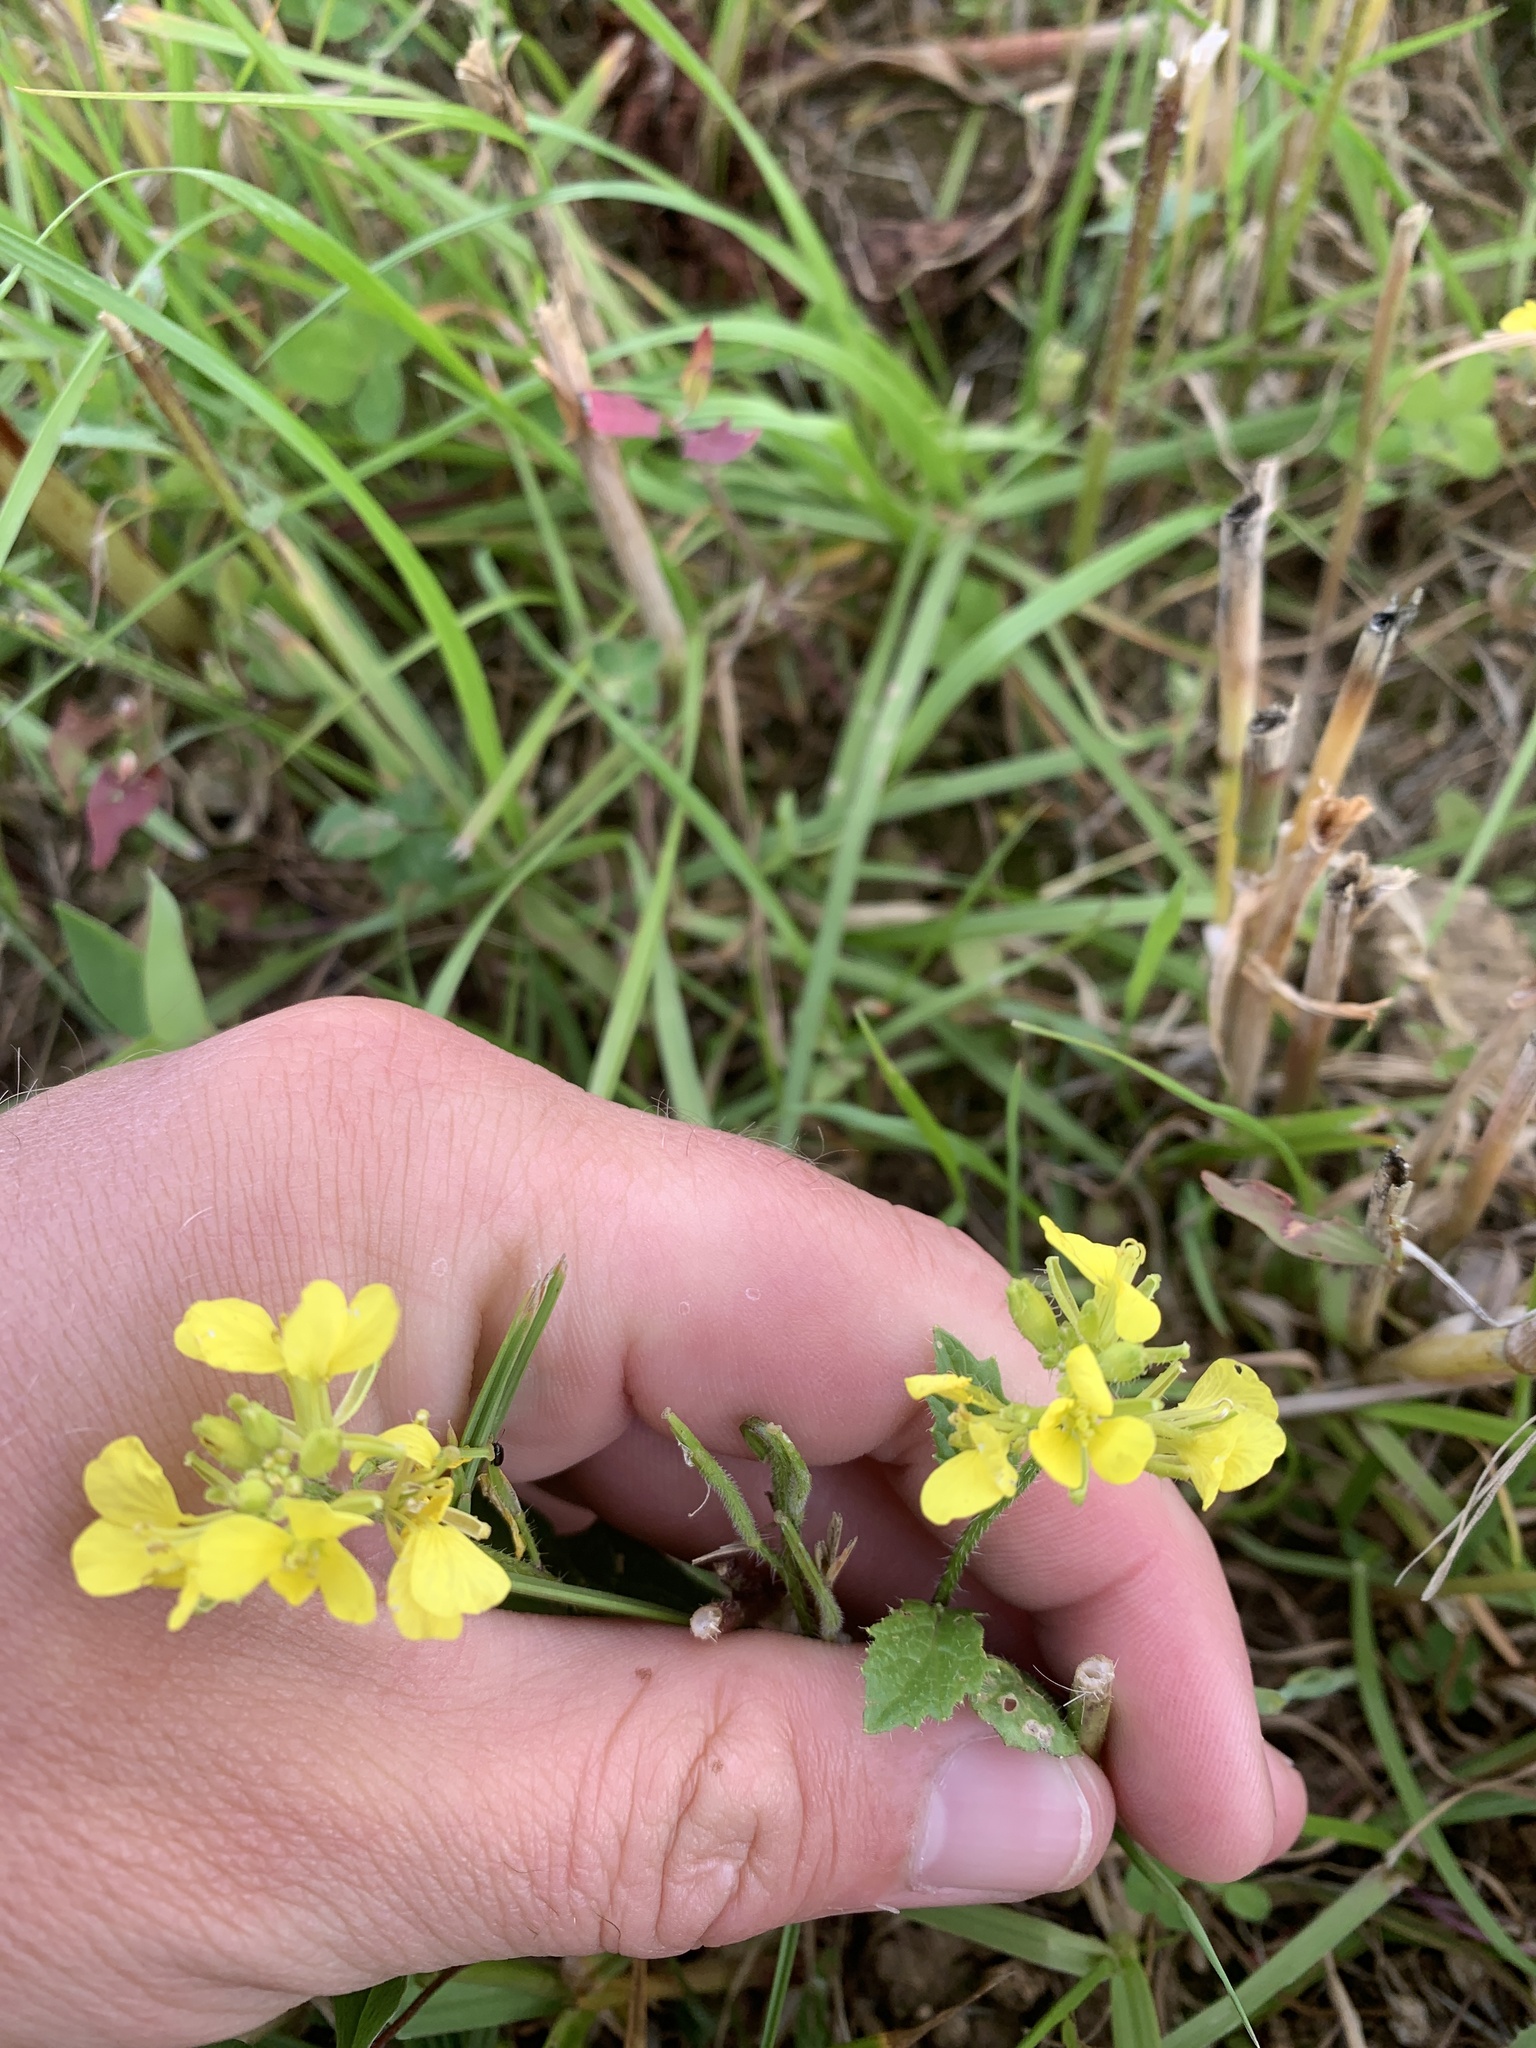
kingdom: Plantae
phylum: Tracheophyta
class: Magnoliopsida
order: Brassicales
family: Brassicaceae
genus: Sinapis
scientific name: Sinapis arvensis
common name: Charlock
